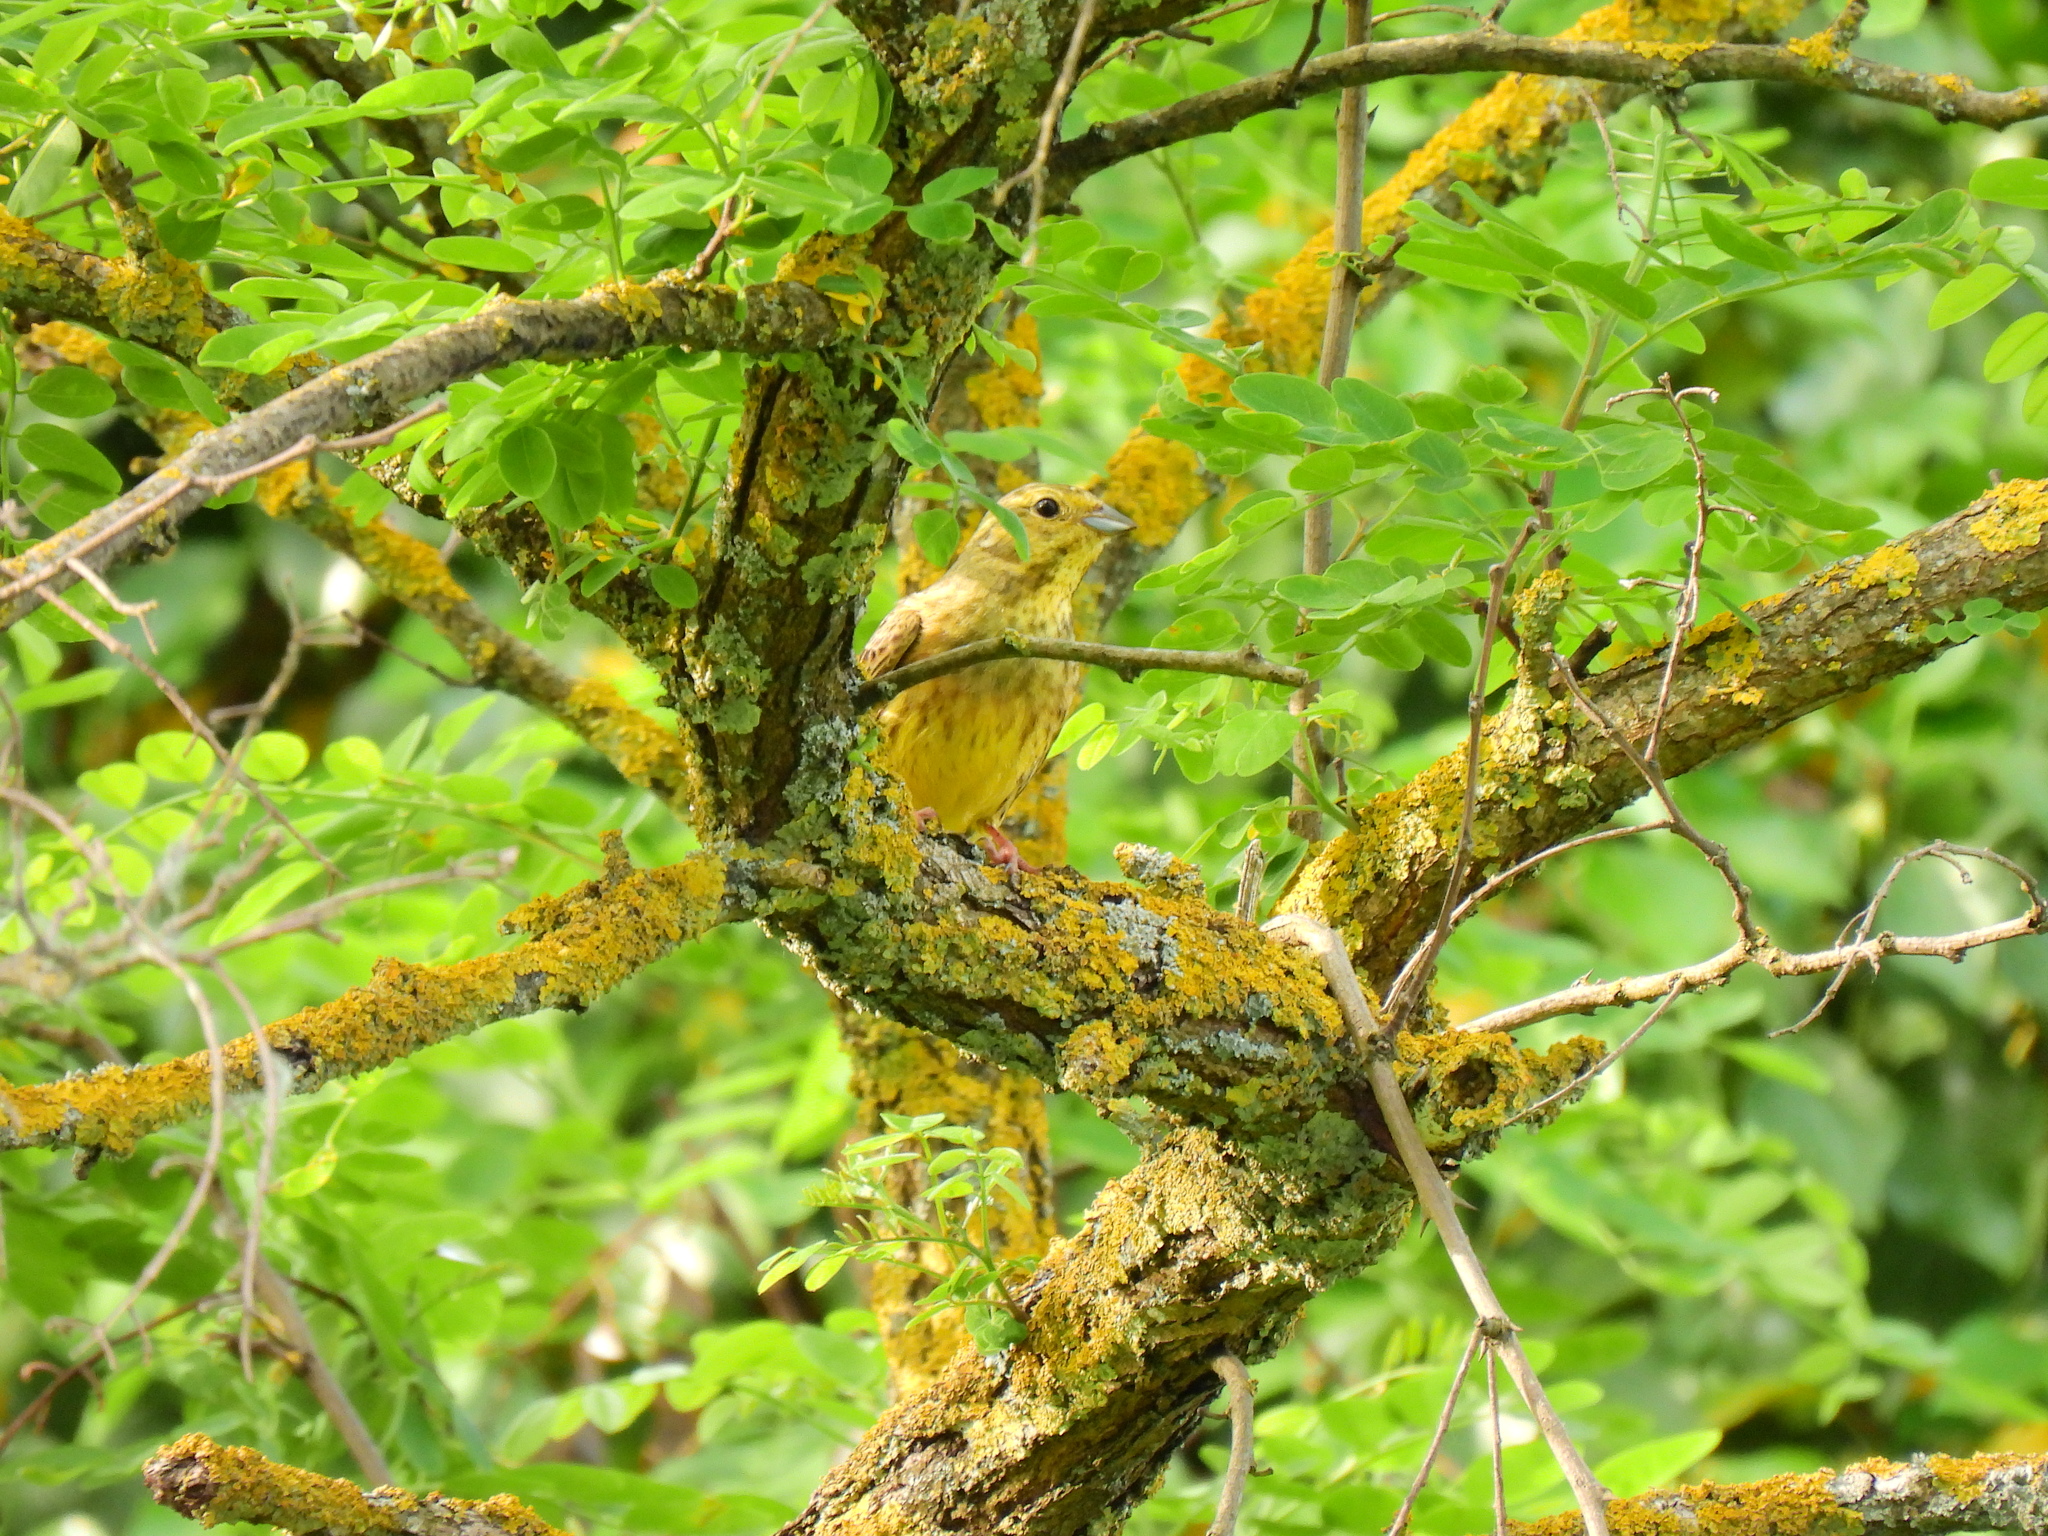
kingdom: Animalia
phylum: Chordata
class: Aves
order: Passeriformes
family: Emberizidae
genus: Emberiza
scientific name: Emberiza citrinella
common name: Yellowhammer
